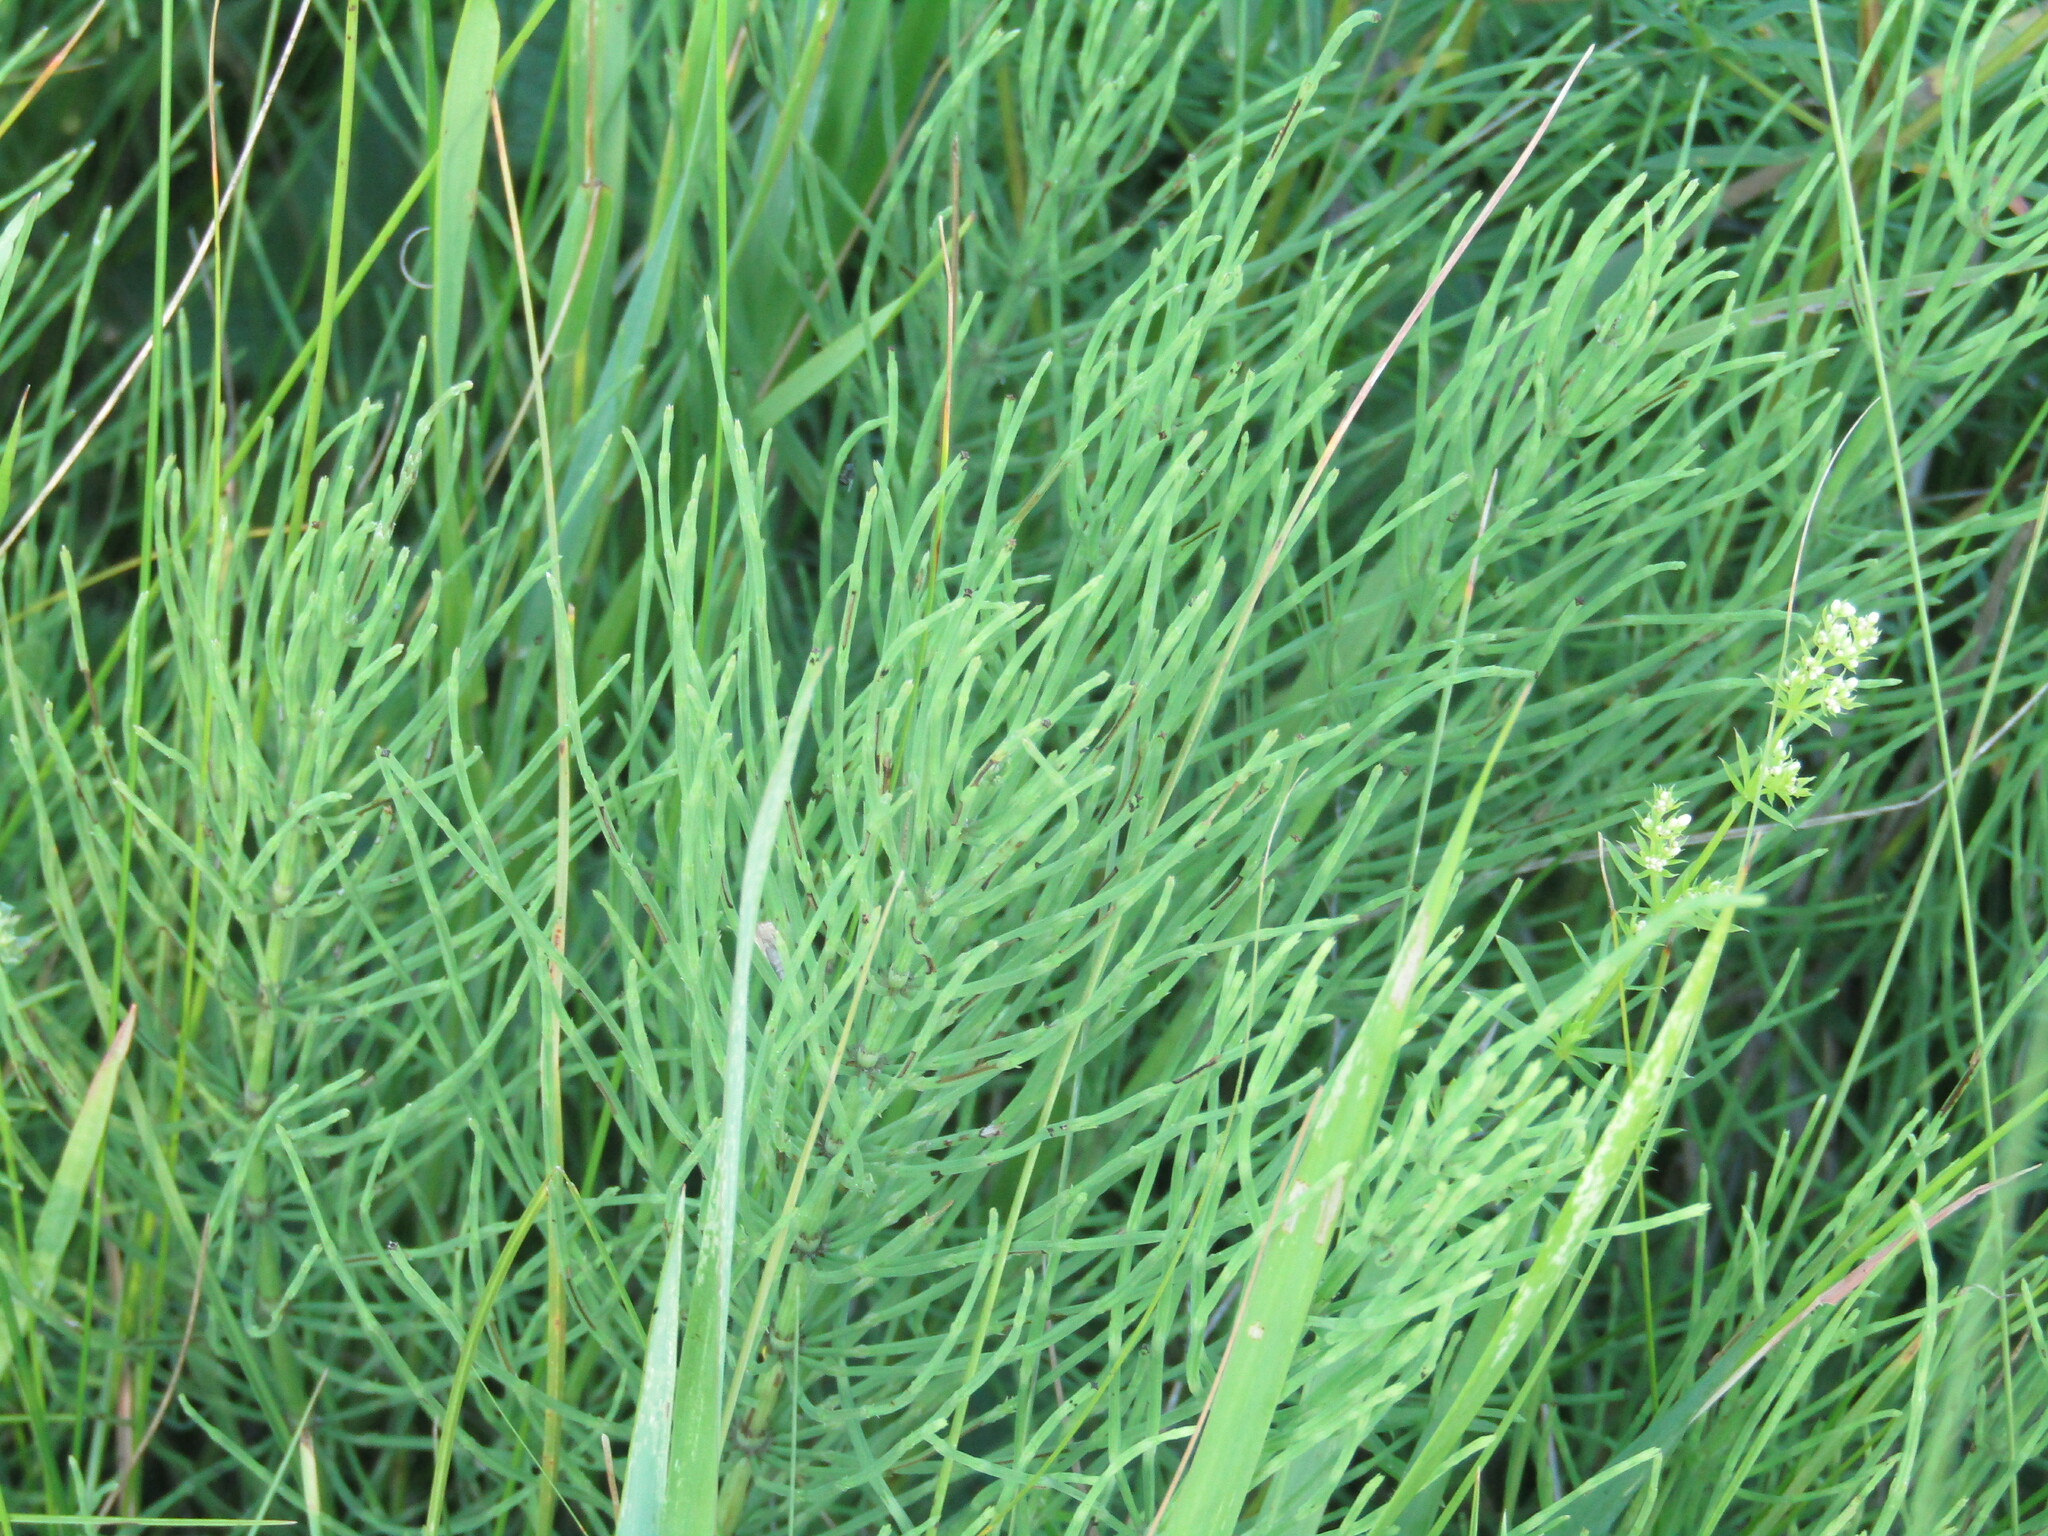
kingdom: Plantae
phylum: Tracheophyta
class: Polypodiopsida
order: Equisetales
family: Equisetaceae
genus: Equisetum
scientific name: Equisetum arvense
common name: Field horsetail
